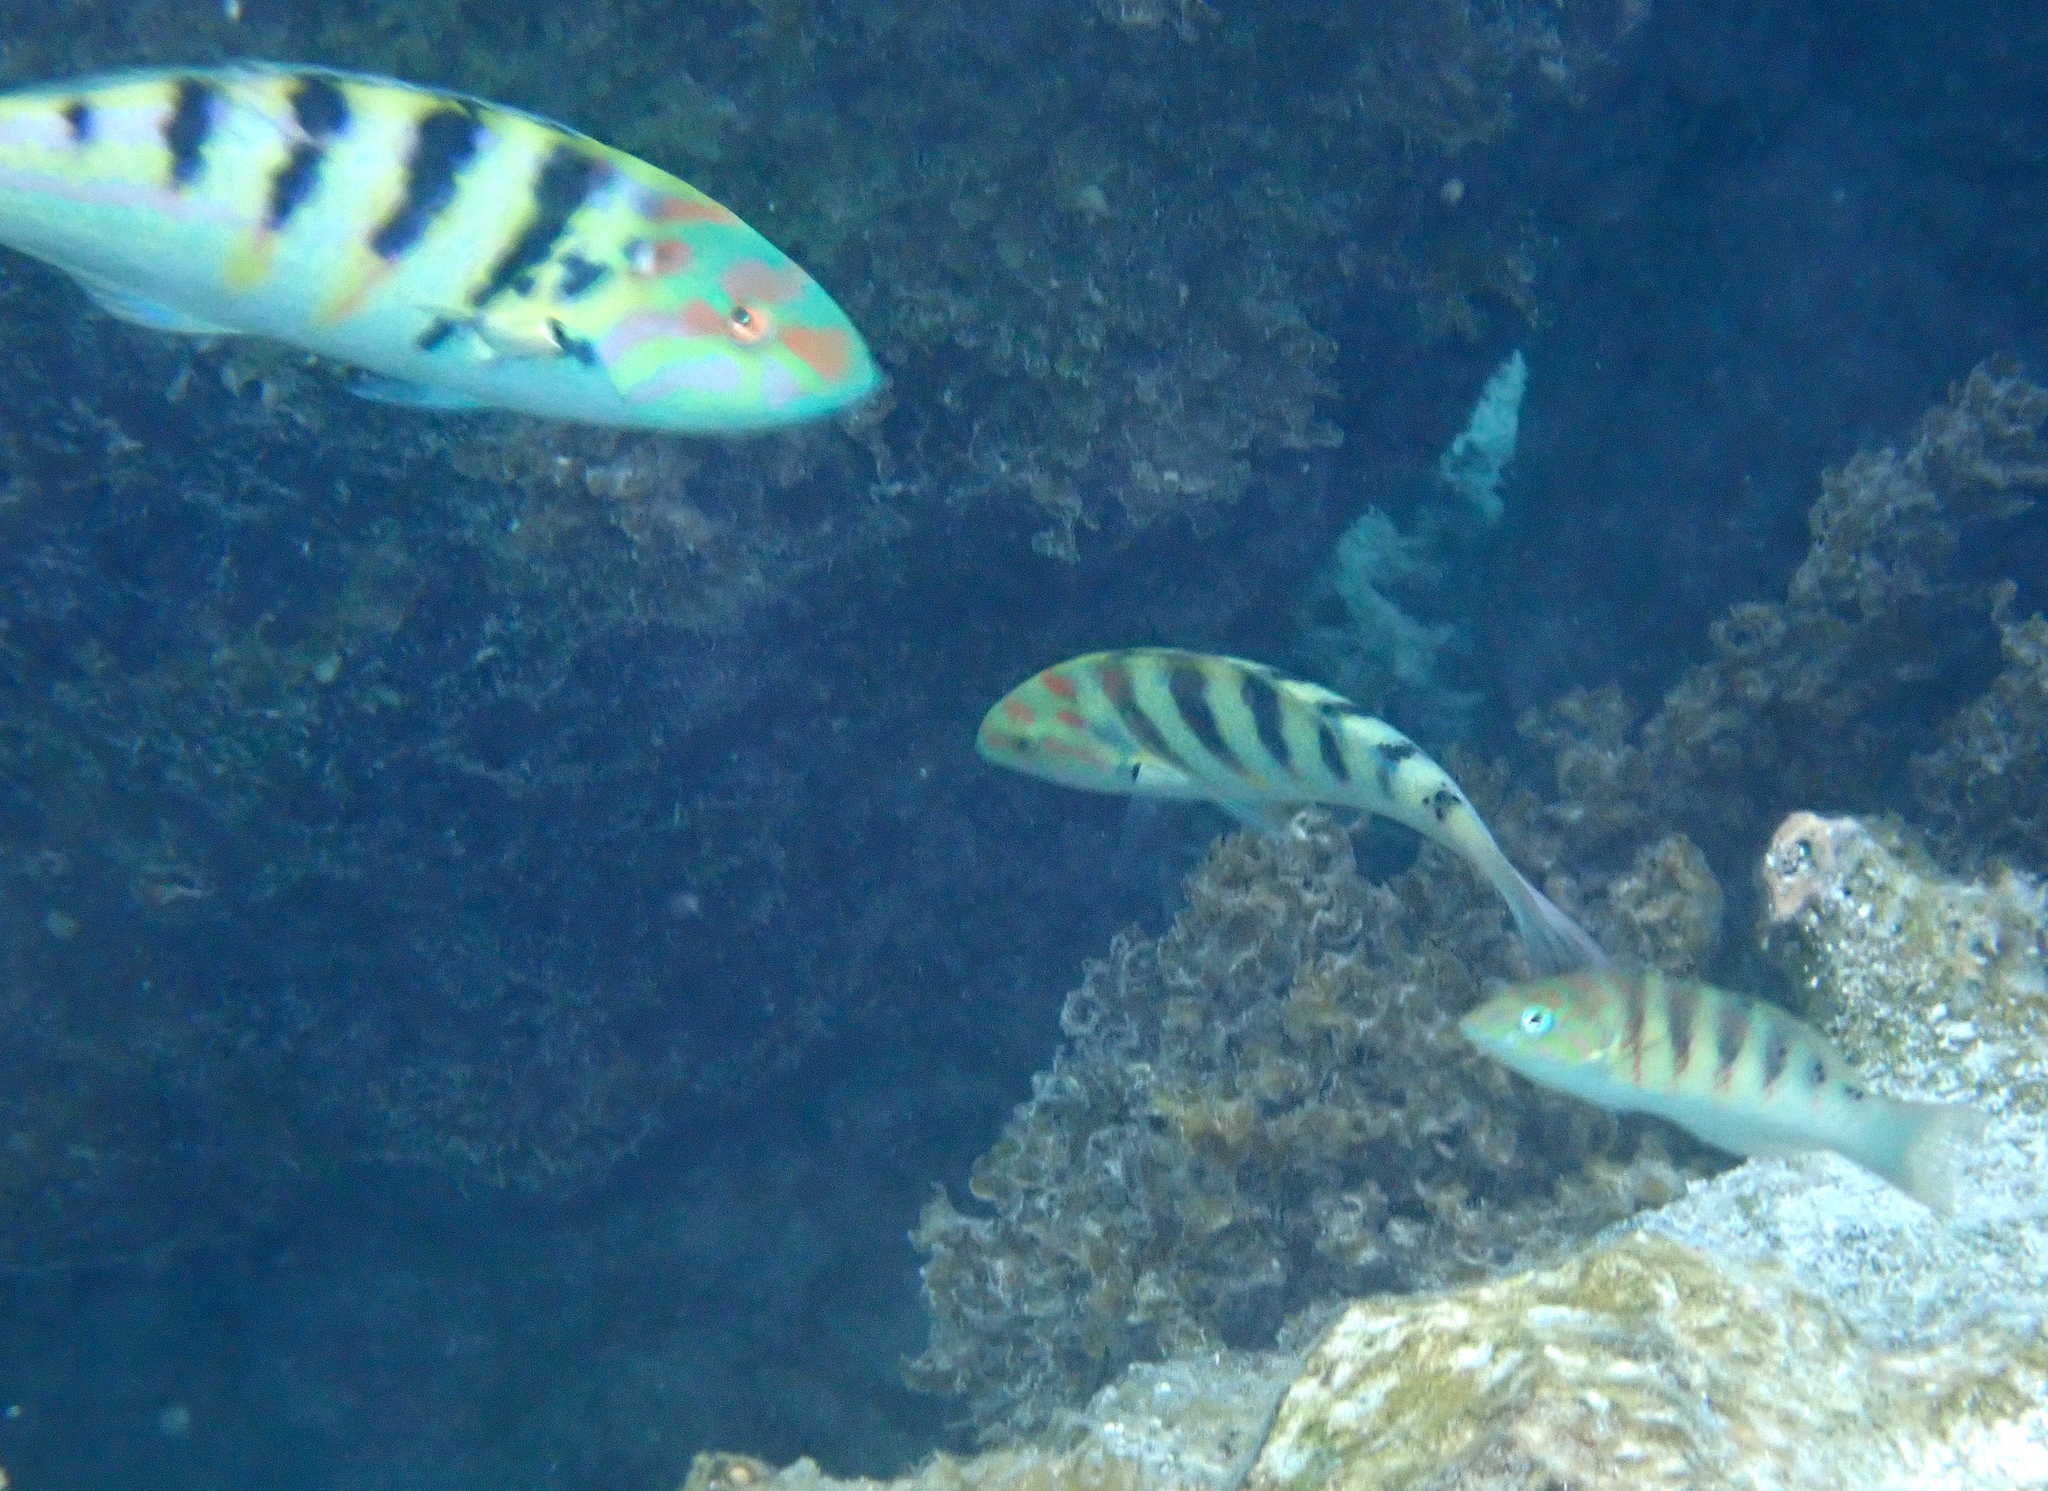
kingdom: Animalia
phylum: Chordata
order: Perciformes
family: Labridae
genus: Thalassoma
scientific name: Thalassoma hardwicke
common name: Sixbar wrasse
